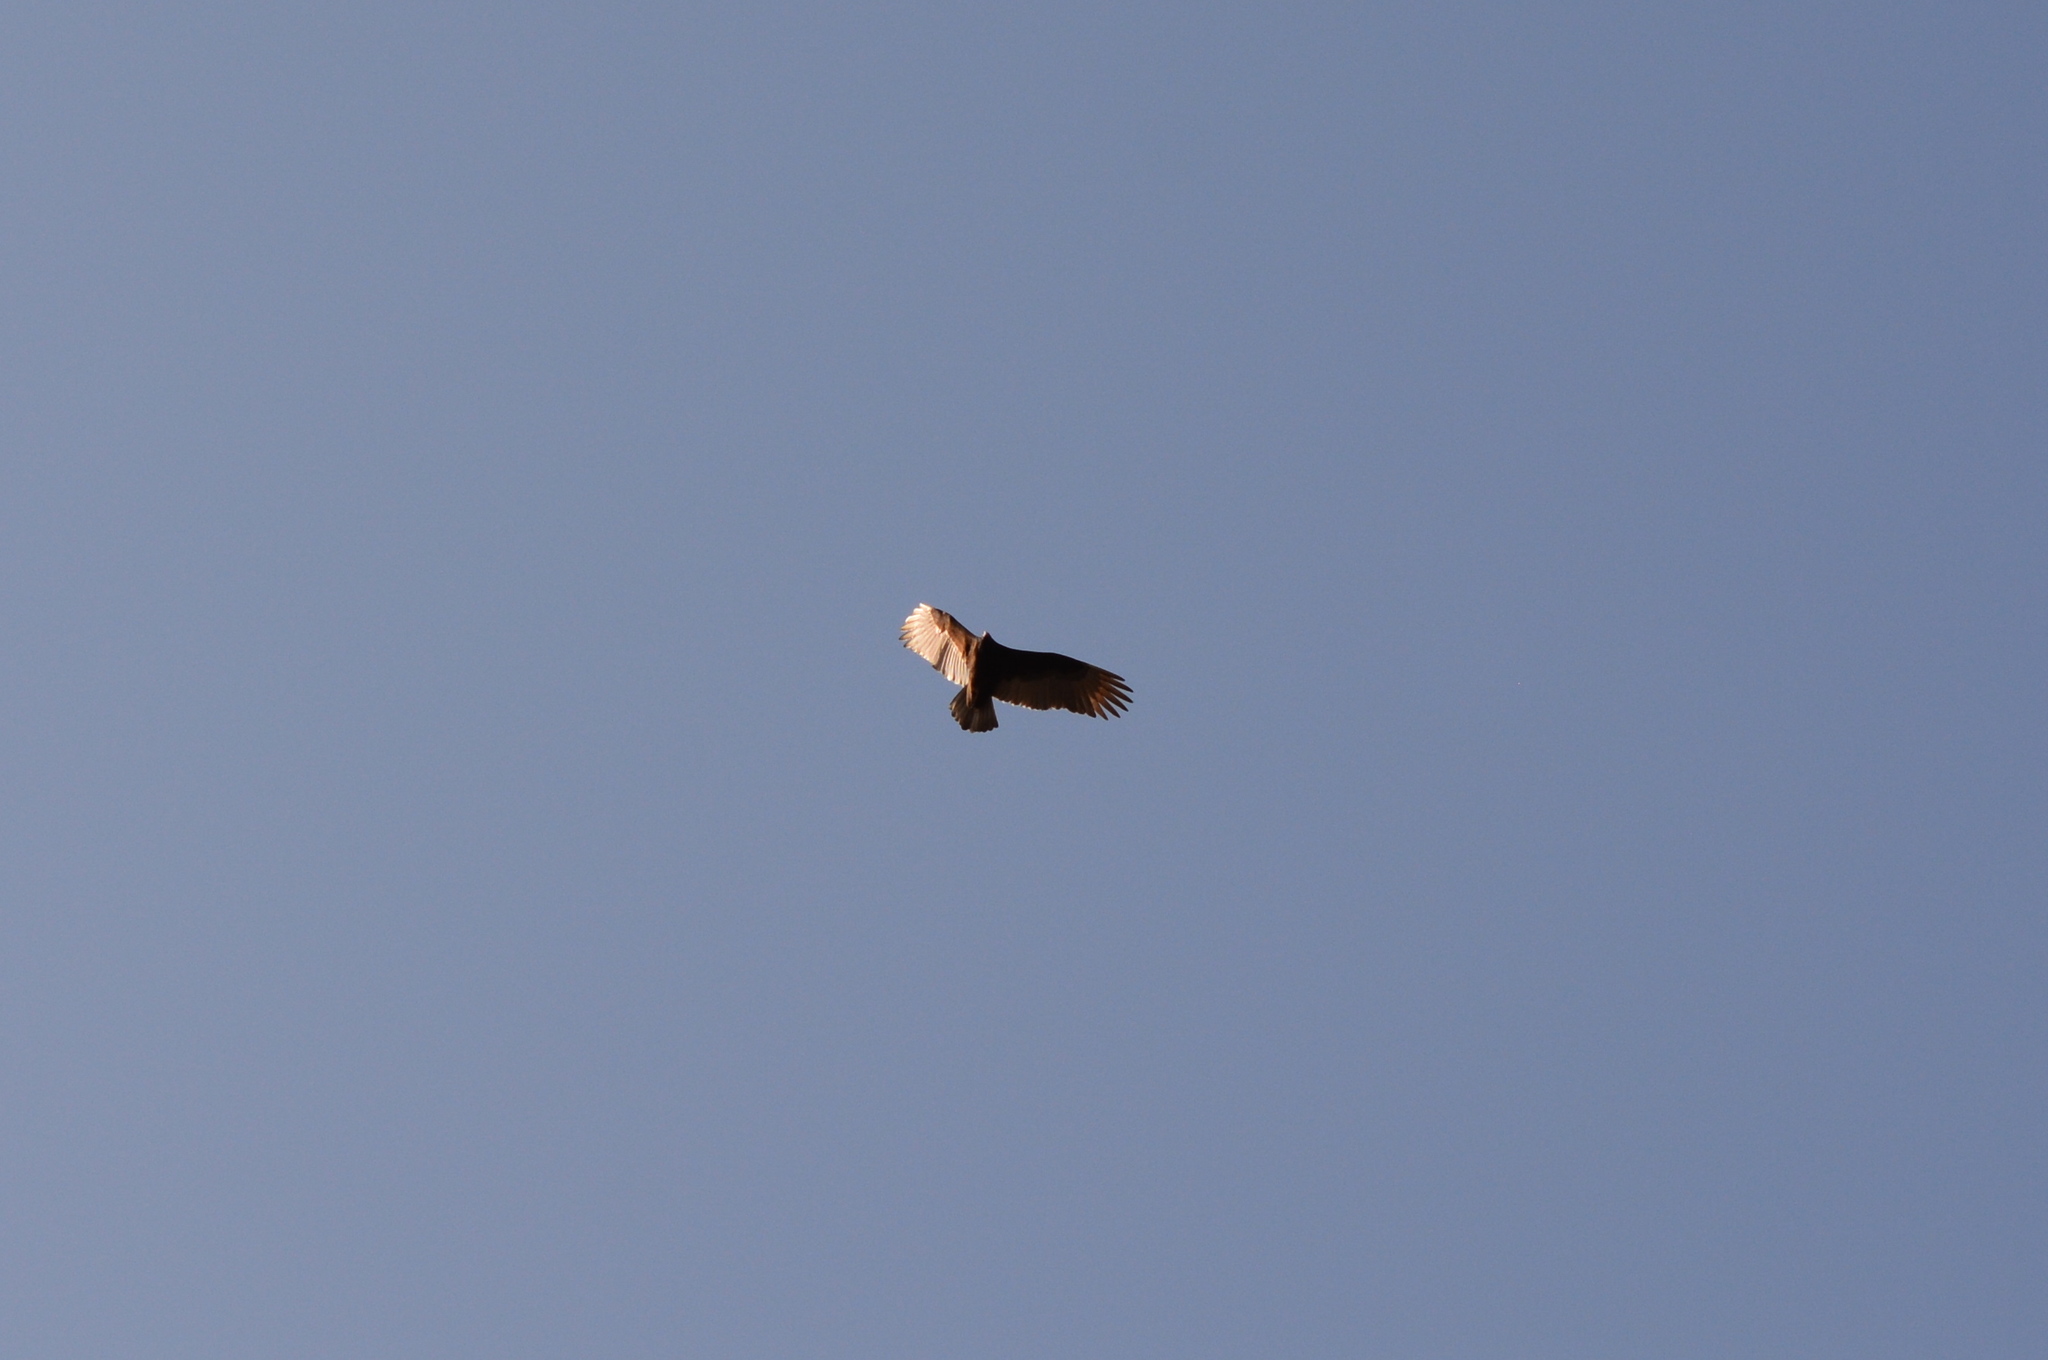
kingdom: Animalia
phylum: Chordata
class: Aves
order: Accipitriformes
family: Cathartidae
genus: Cathartes
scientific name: Cathartes aura
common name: Turkey vulture
